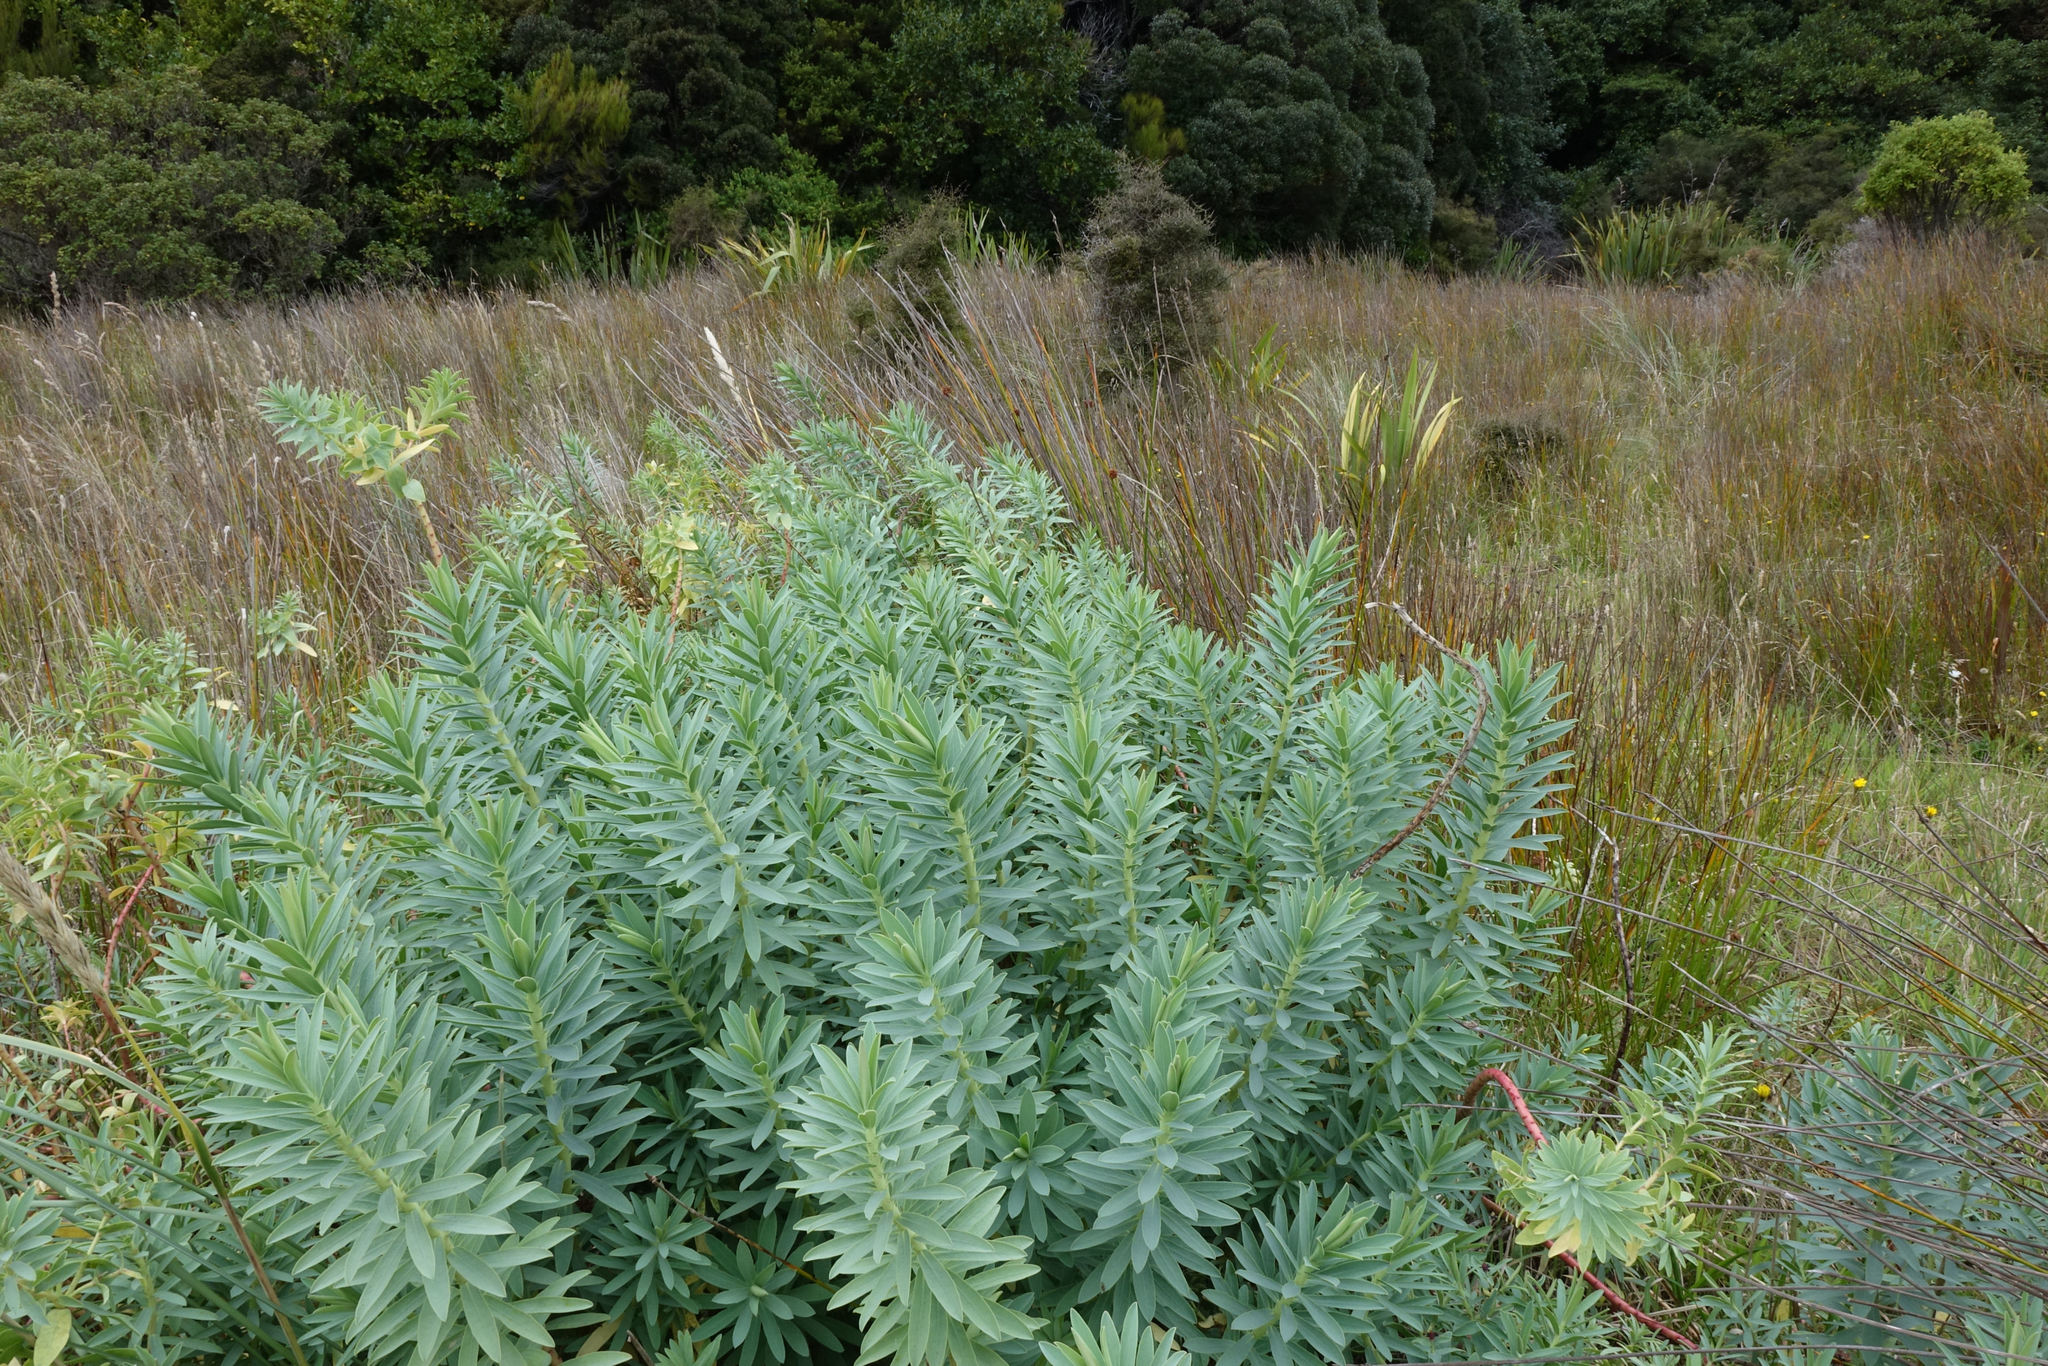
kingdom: Plantae
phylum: Tracheophyta
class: Magnoliopsida
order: Malpighiales
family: Euphorbiaceae
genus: Euphorbia
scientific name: Euphorbia glauca
